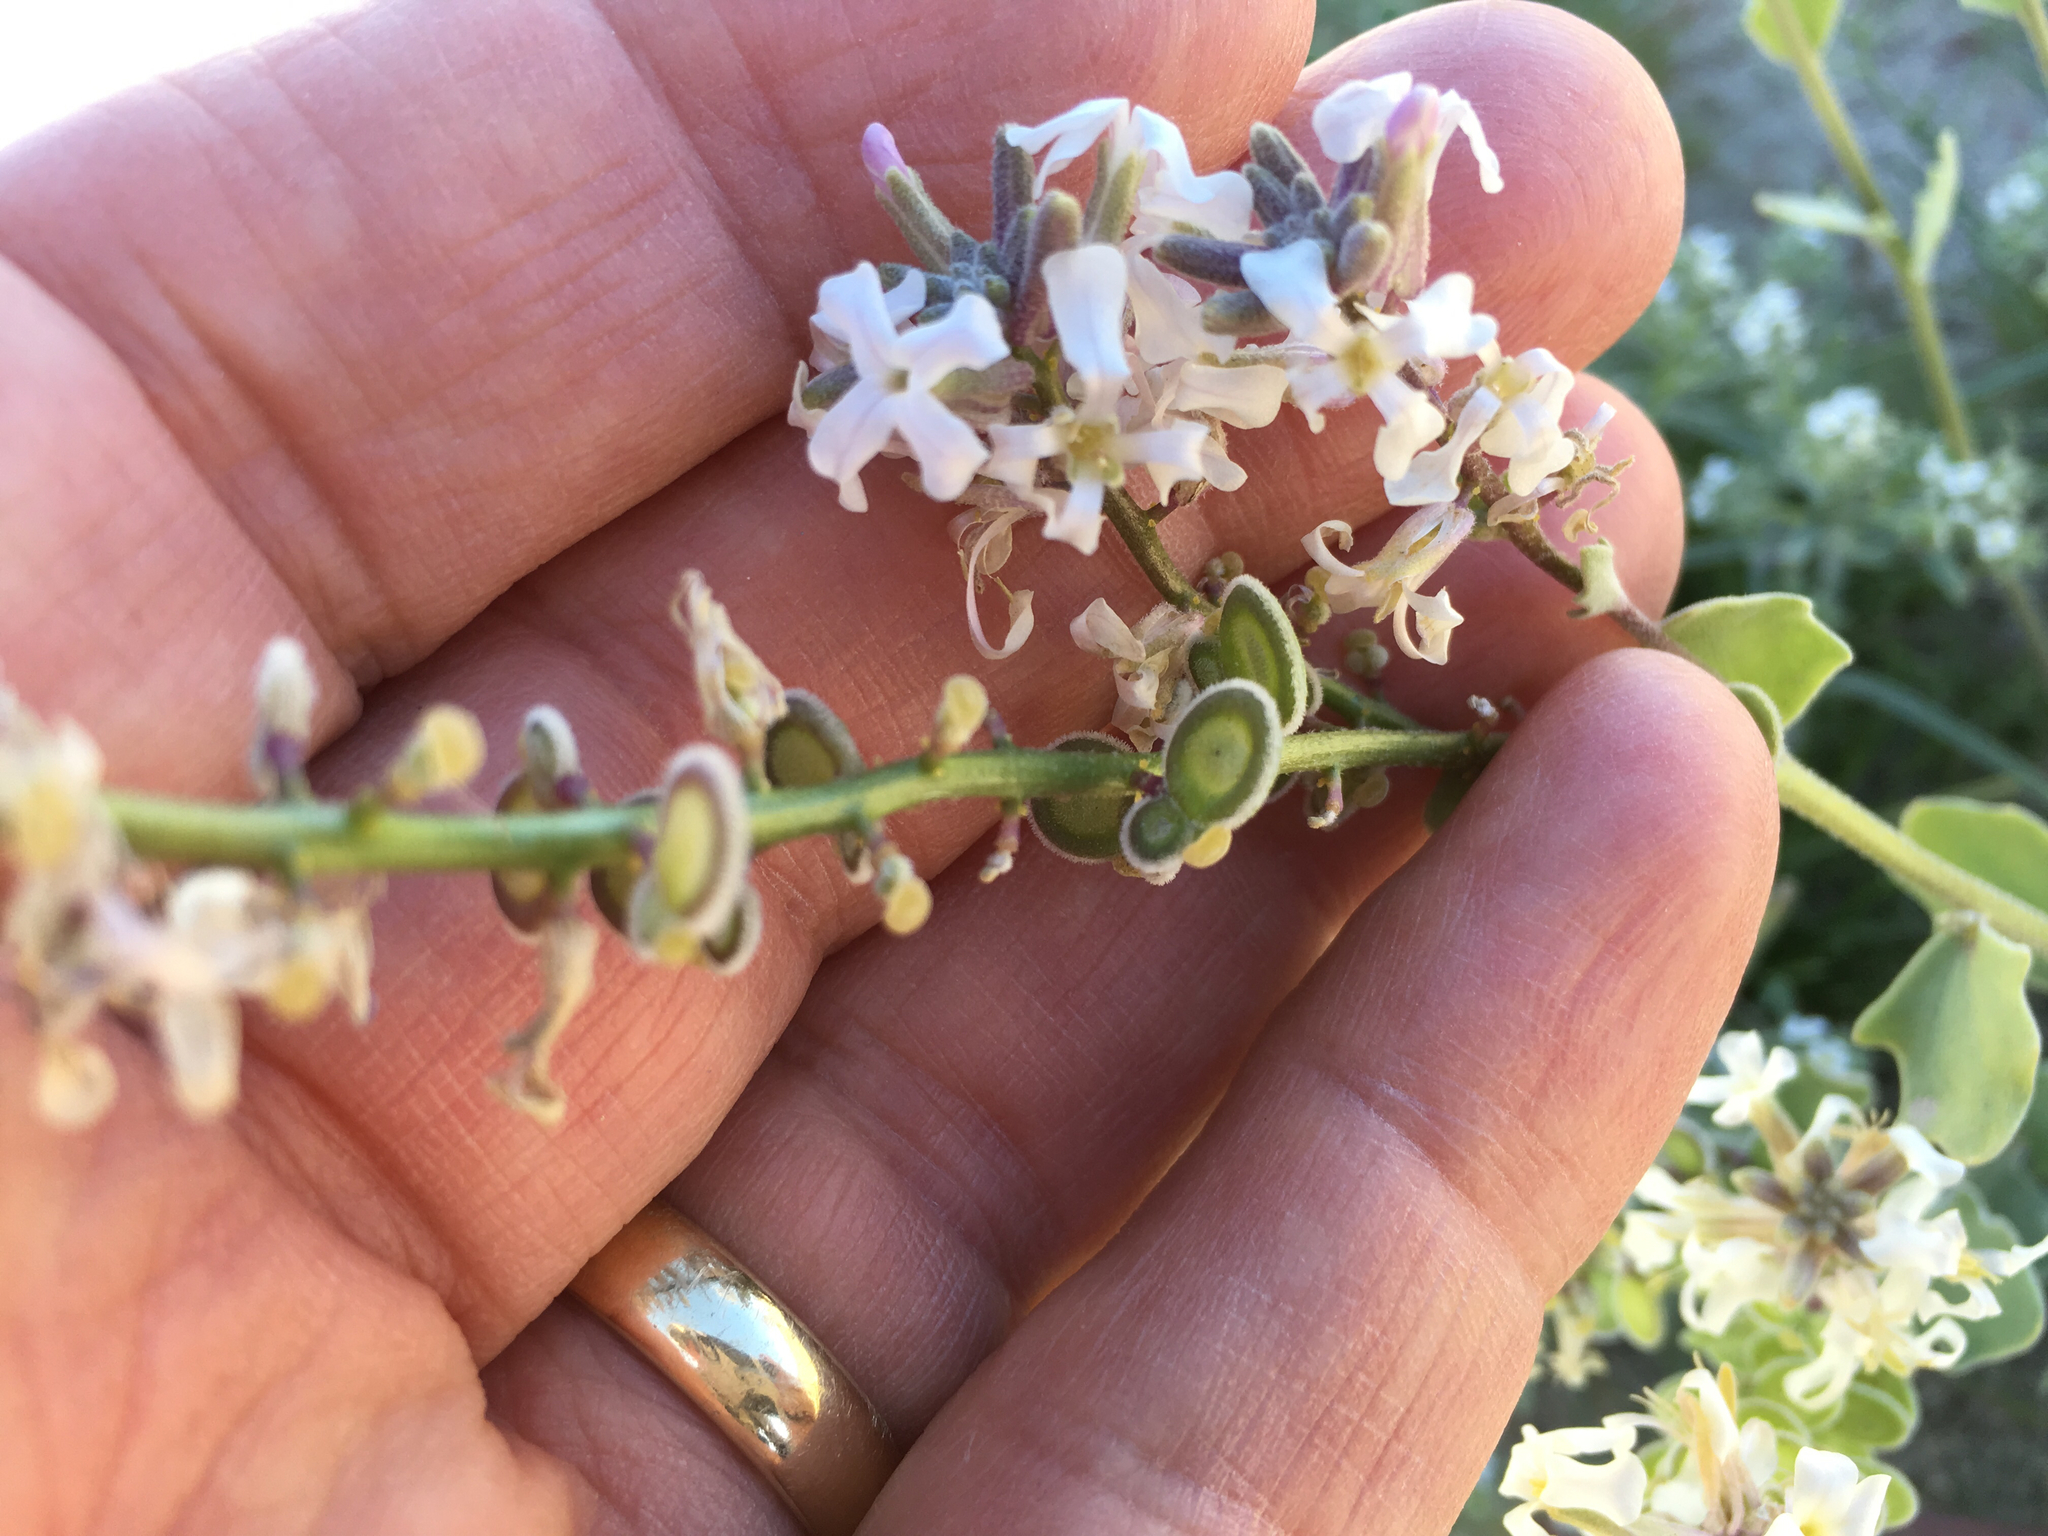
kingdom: Plantae
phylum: Tracheophyta
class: Magnoliopsida
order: Brassicales
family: Brassicaceae
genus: Dithyrea
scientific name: Dithyrea californica
